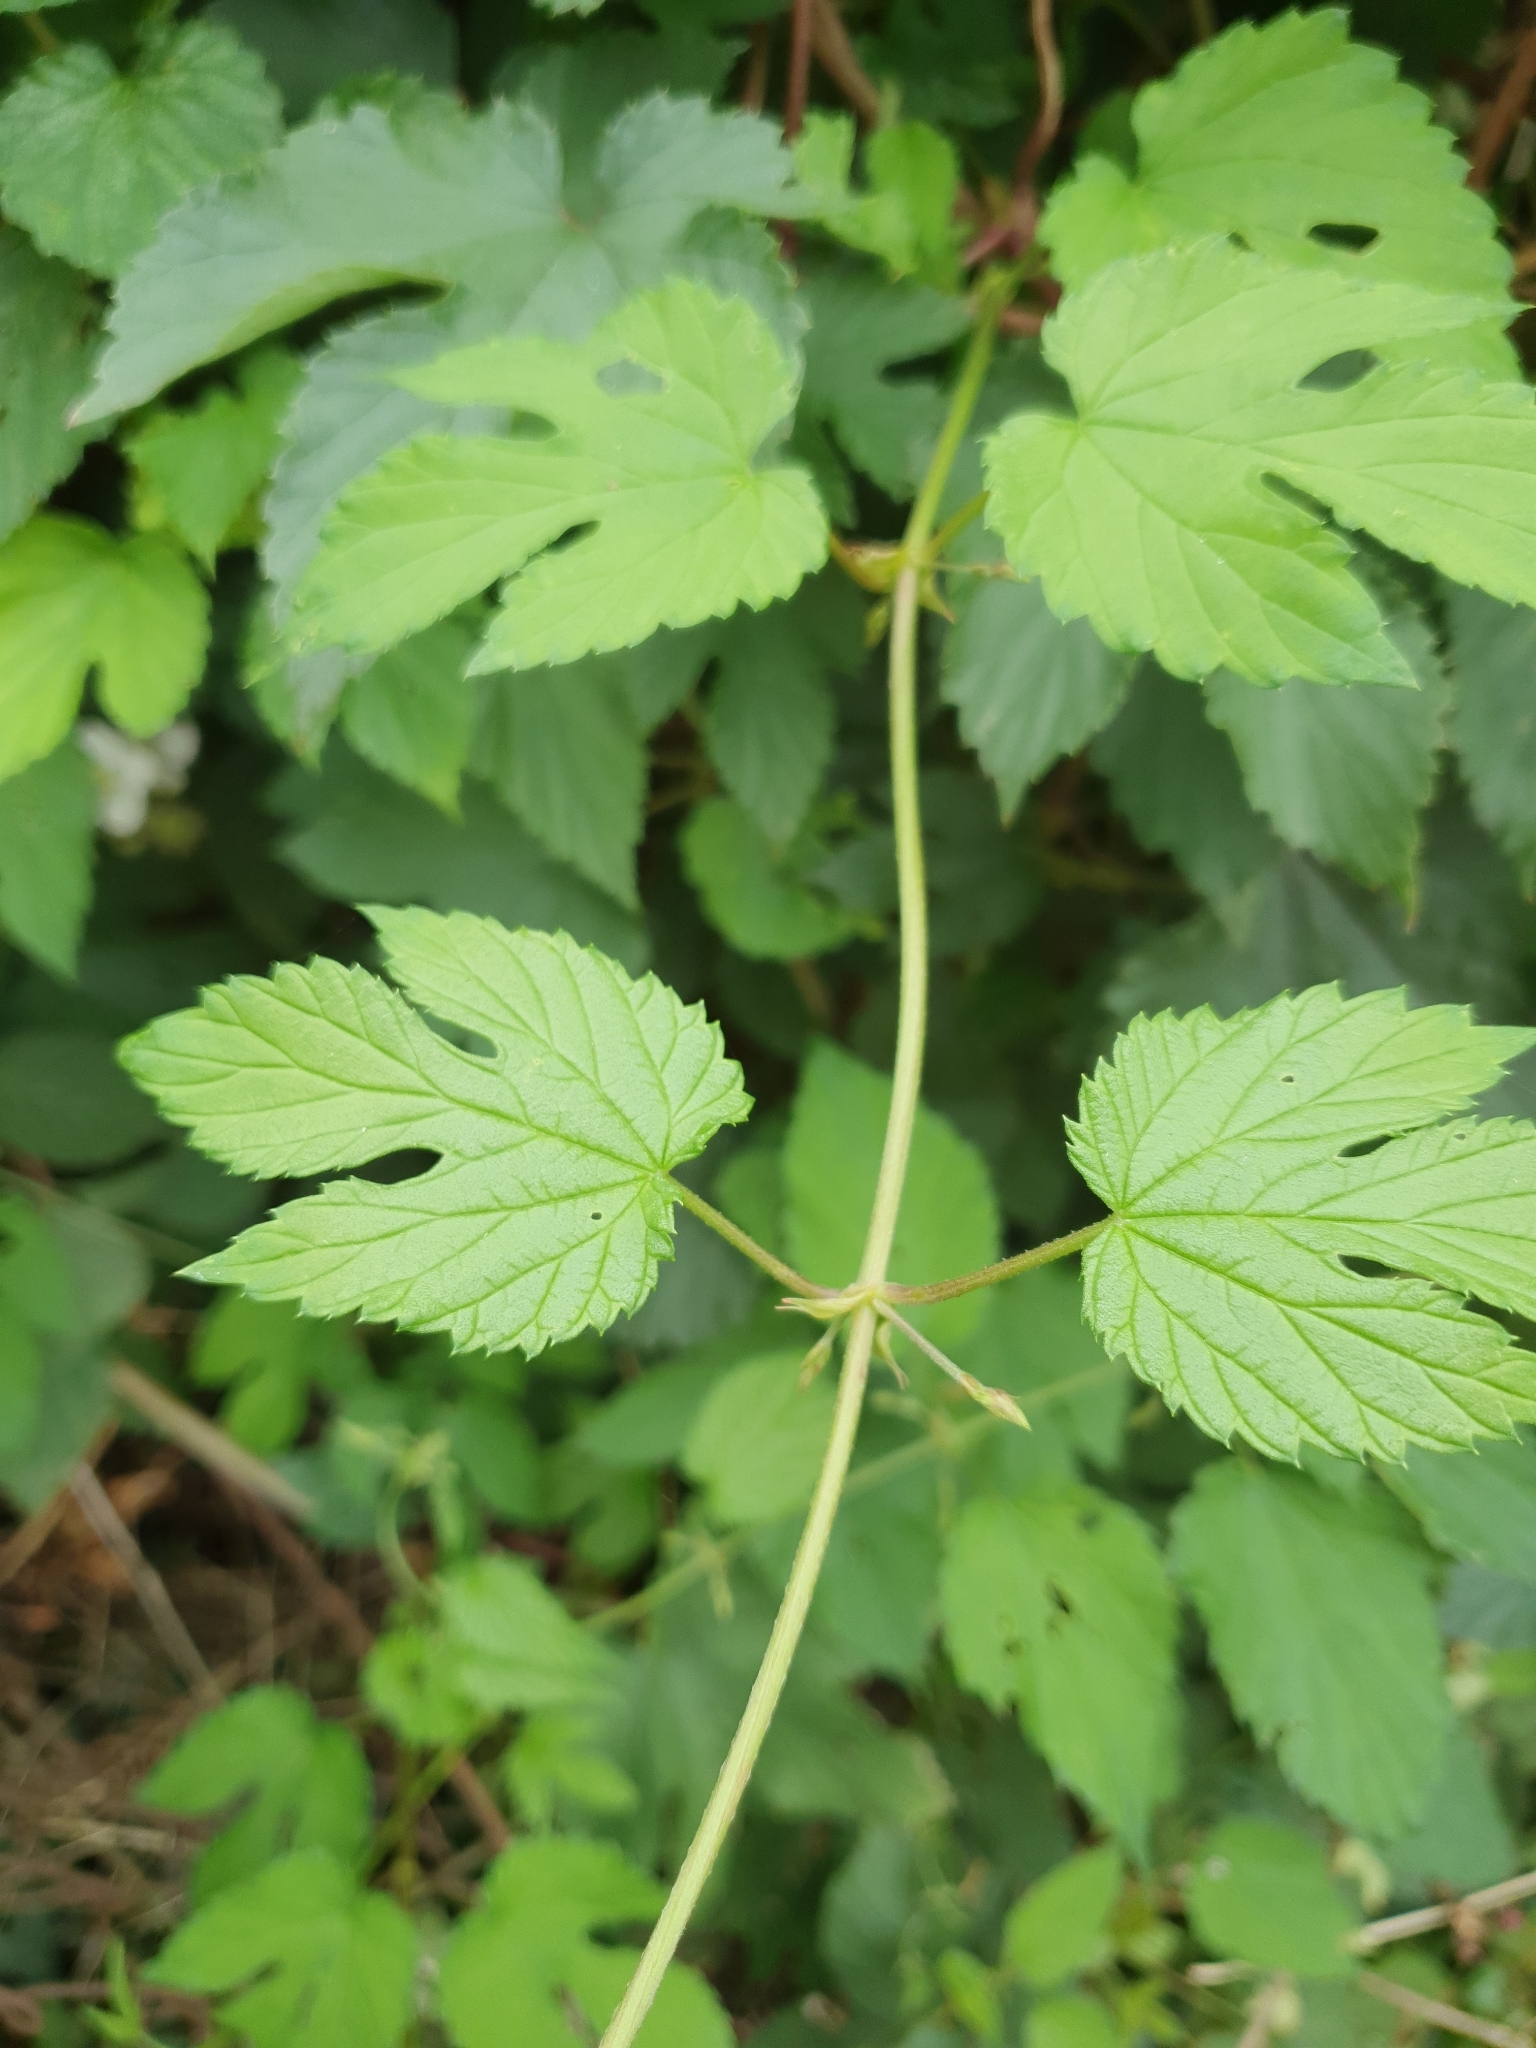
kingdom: Plantae
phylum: Tracheophyta
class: Magnoliopsida
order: Rosales
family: Cannabaceae
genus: Humulus
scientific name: Humulus lupulus
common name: Hop
